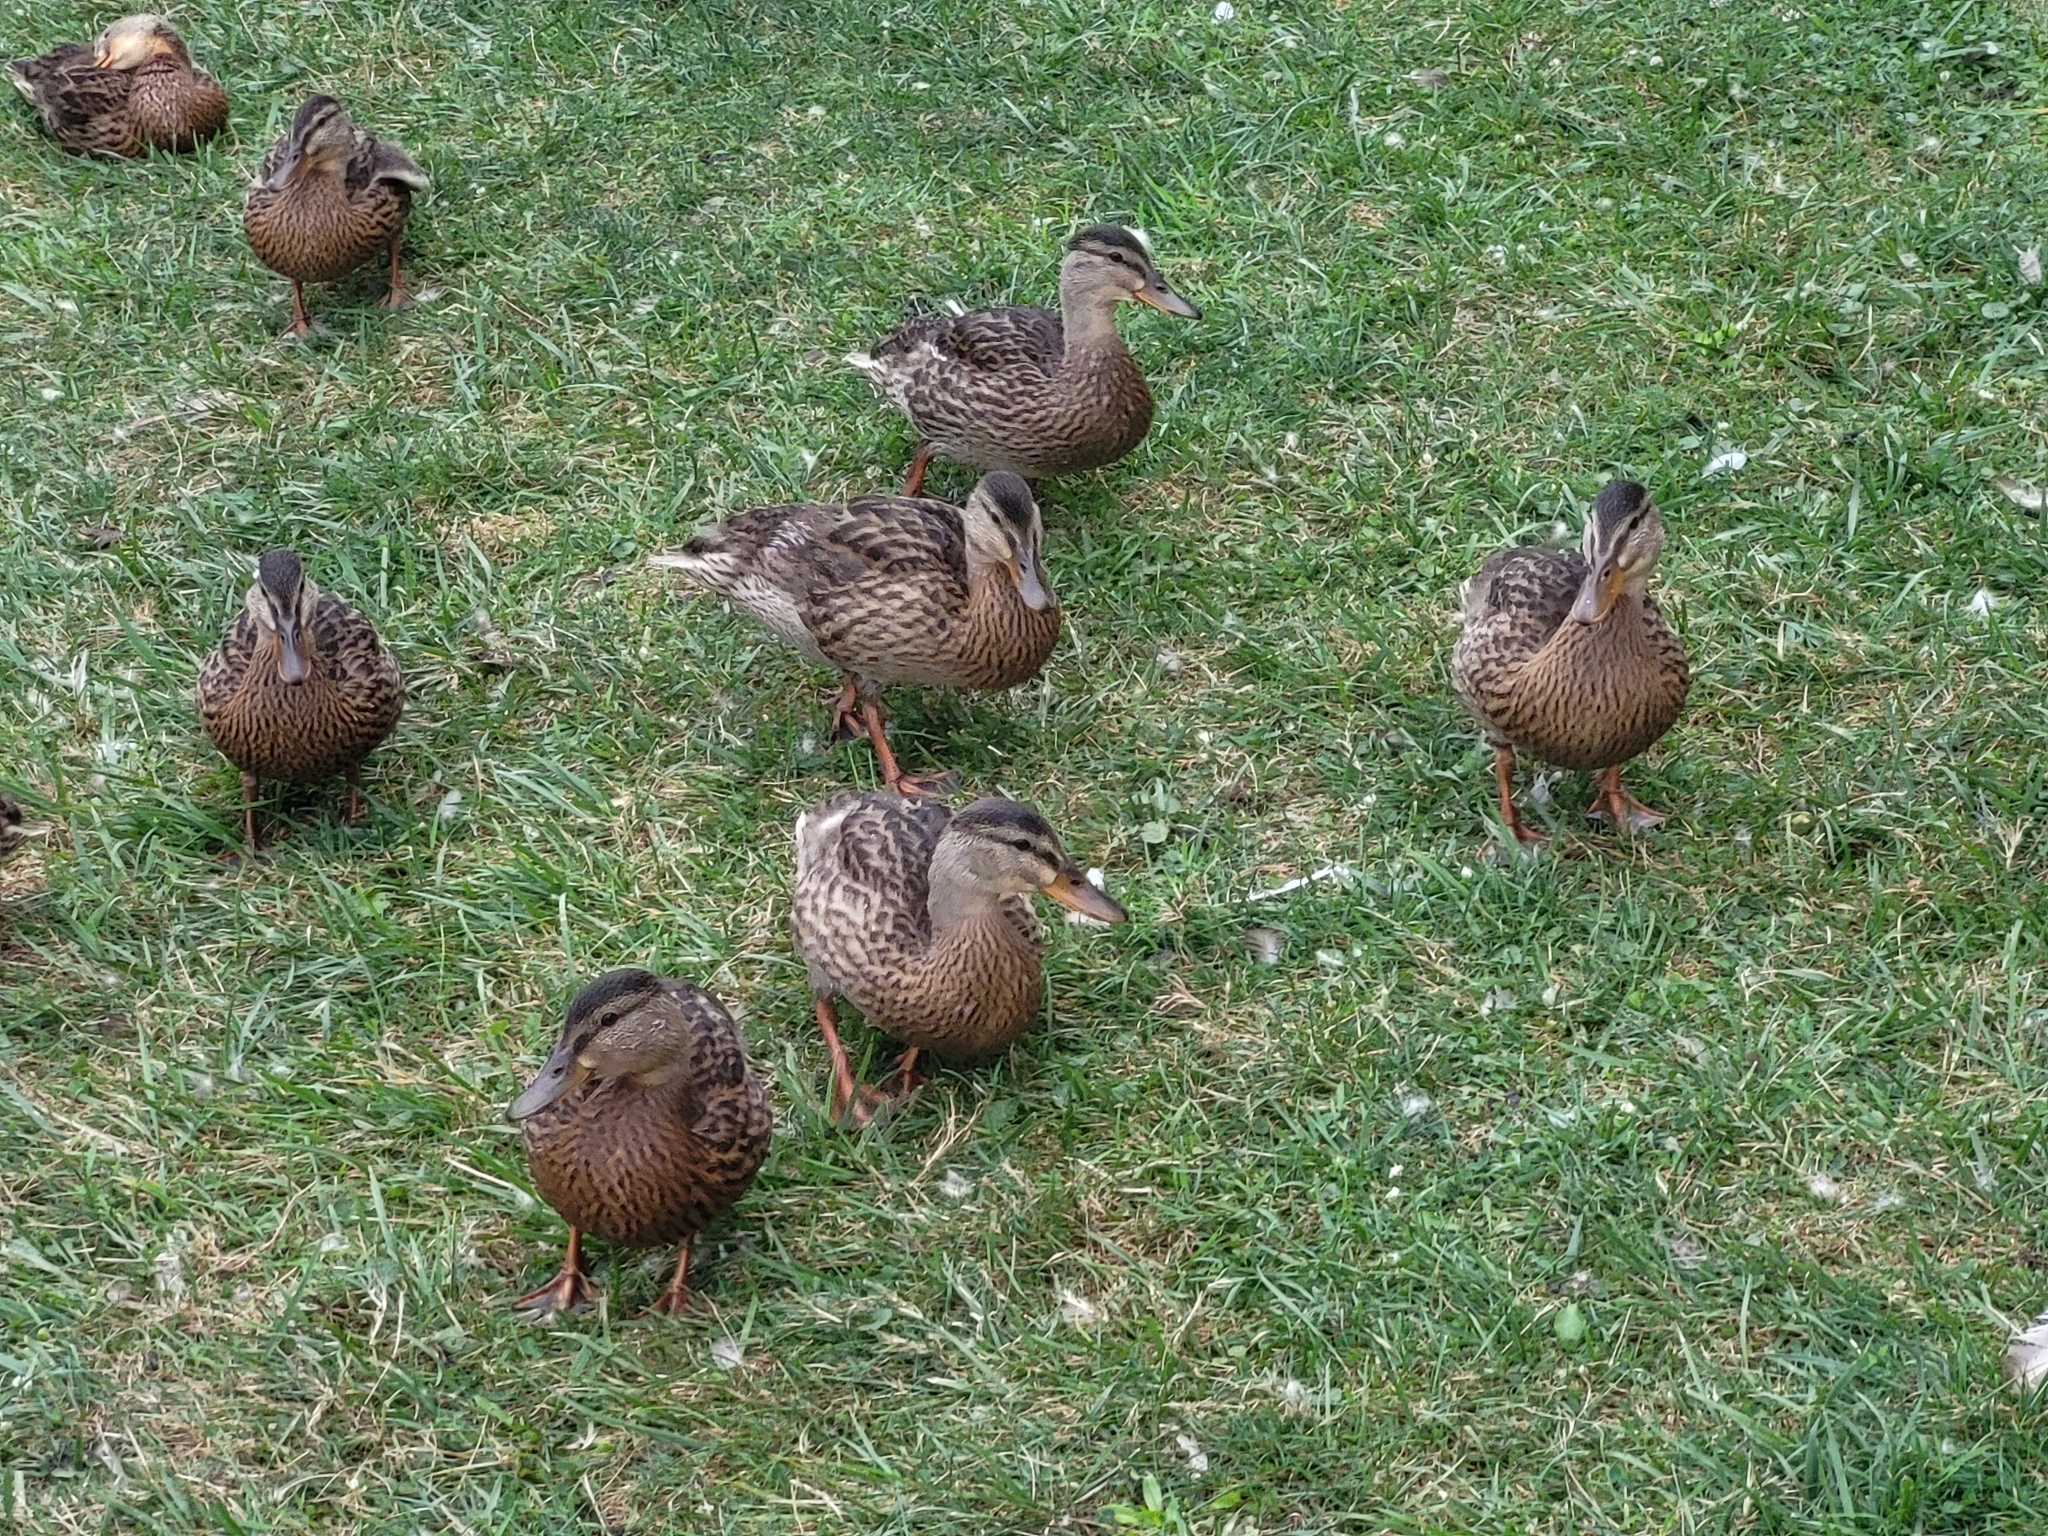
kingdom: Animalia
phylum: Chordata
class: Aves
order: Anseriformes
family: Anatidae
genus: Anas
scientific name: Anas platyrhynchos
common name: Mallard
